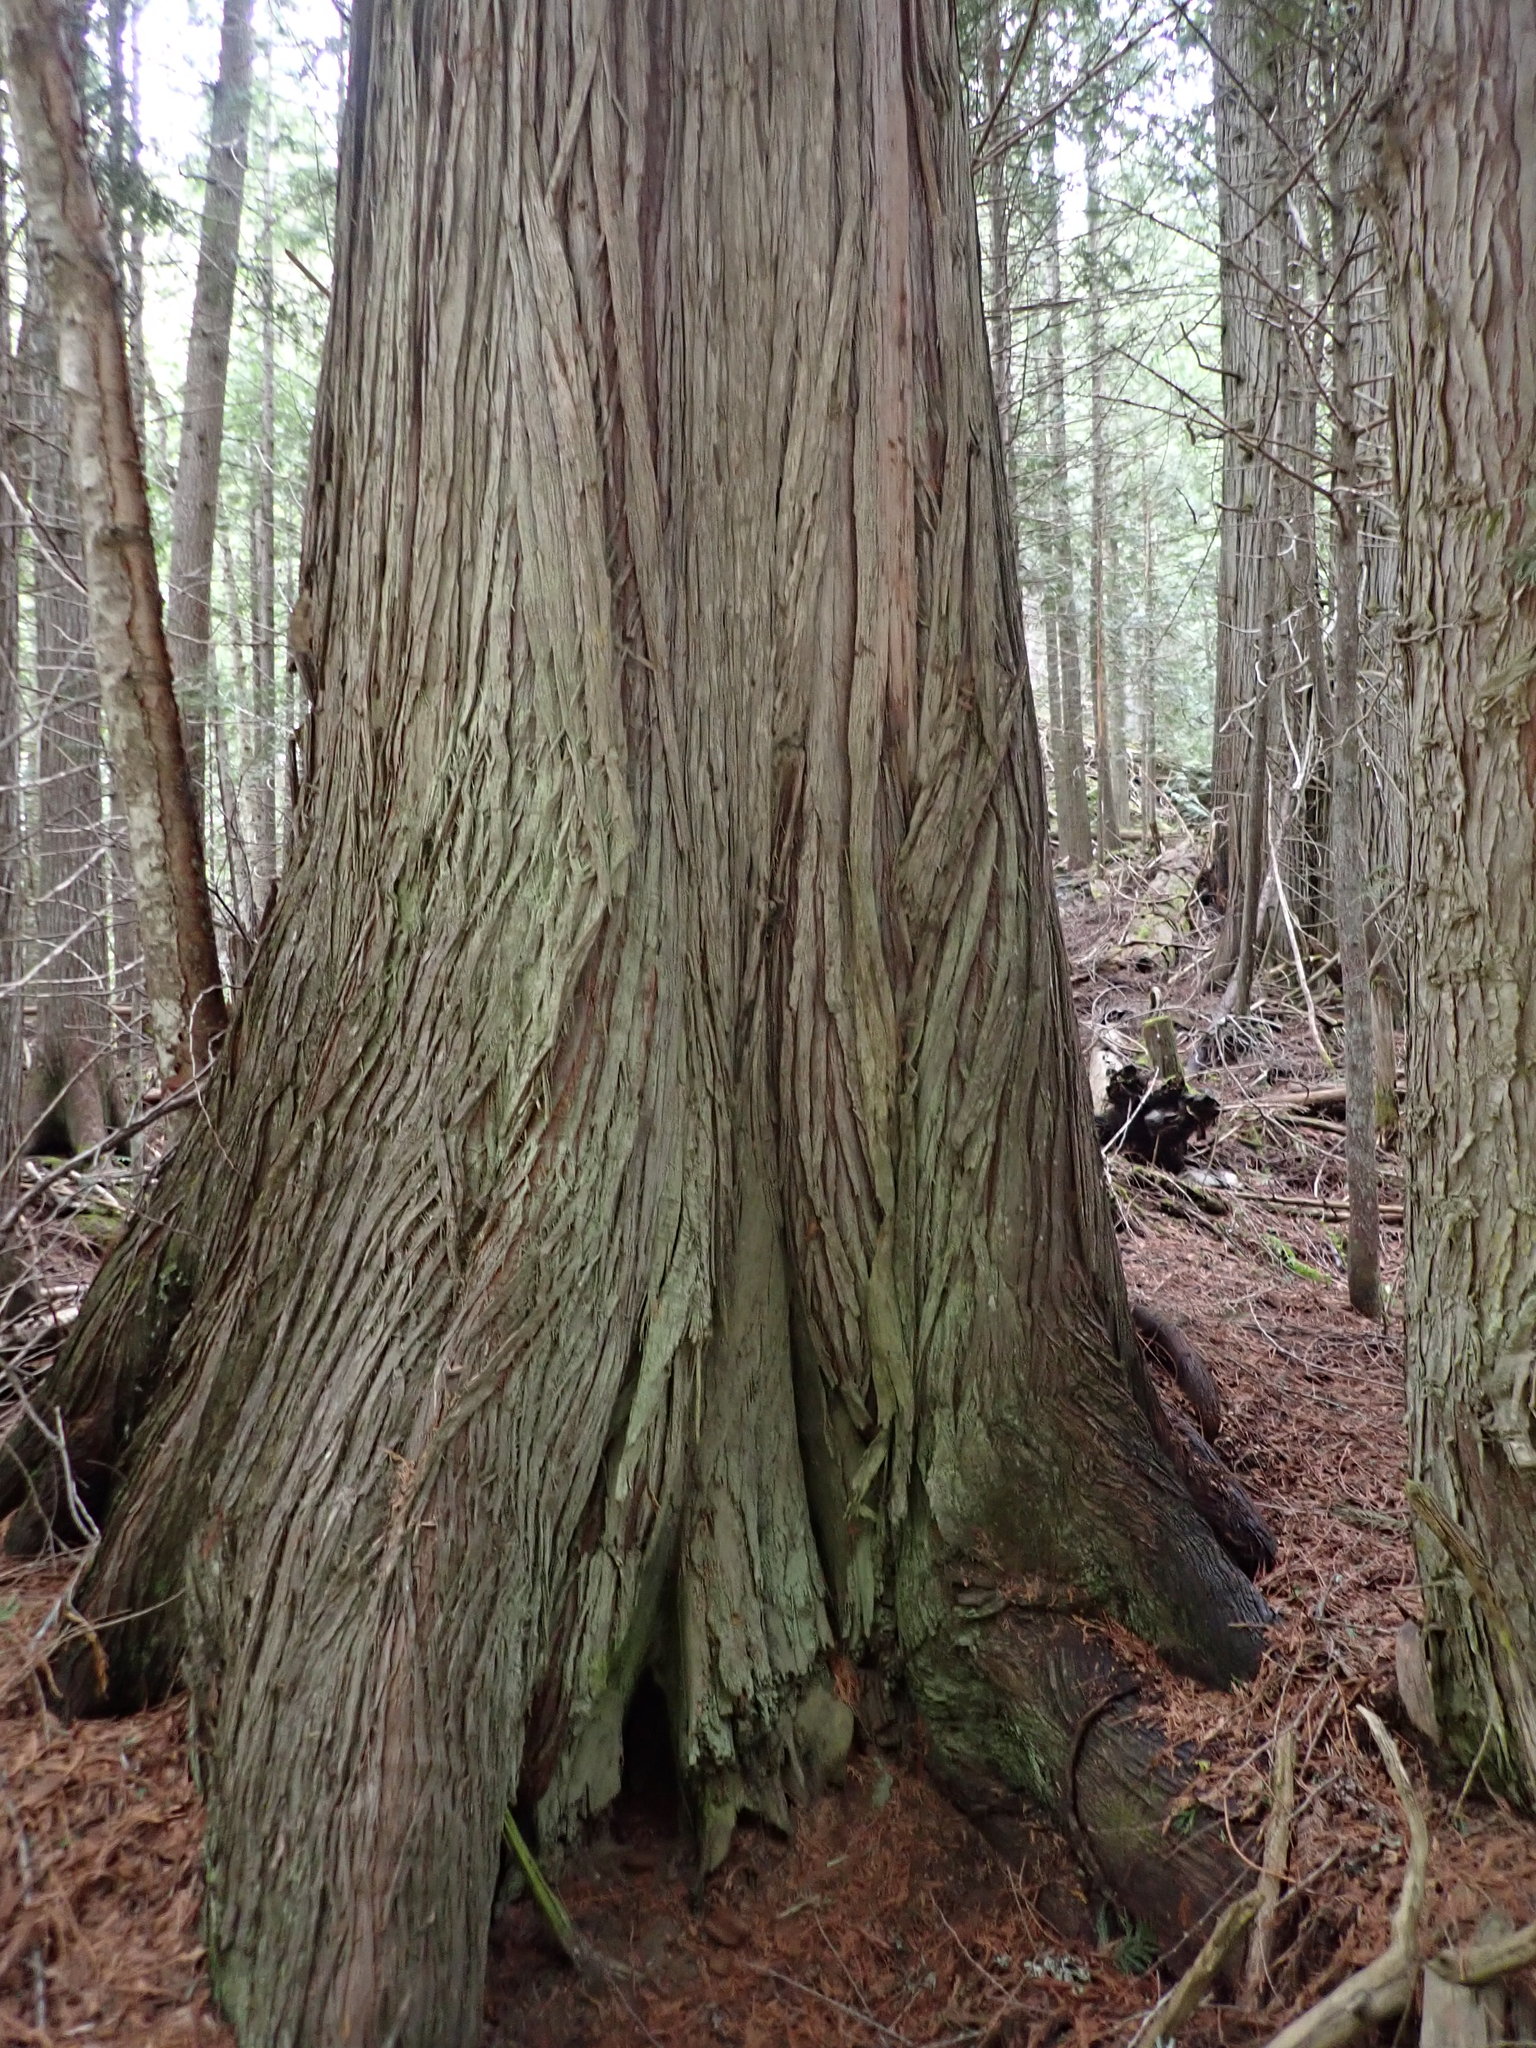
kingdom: Plantae
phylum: Tracheophyta
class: Pinopsida
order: Pinales
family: Cupressaceae
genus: Thuja
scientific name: Thuja plicata
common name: Western red-cedar
